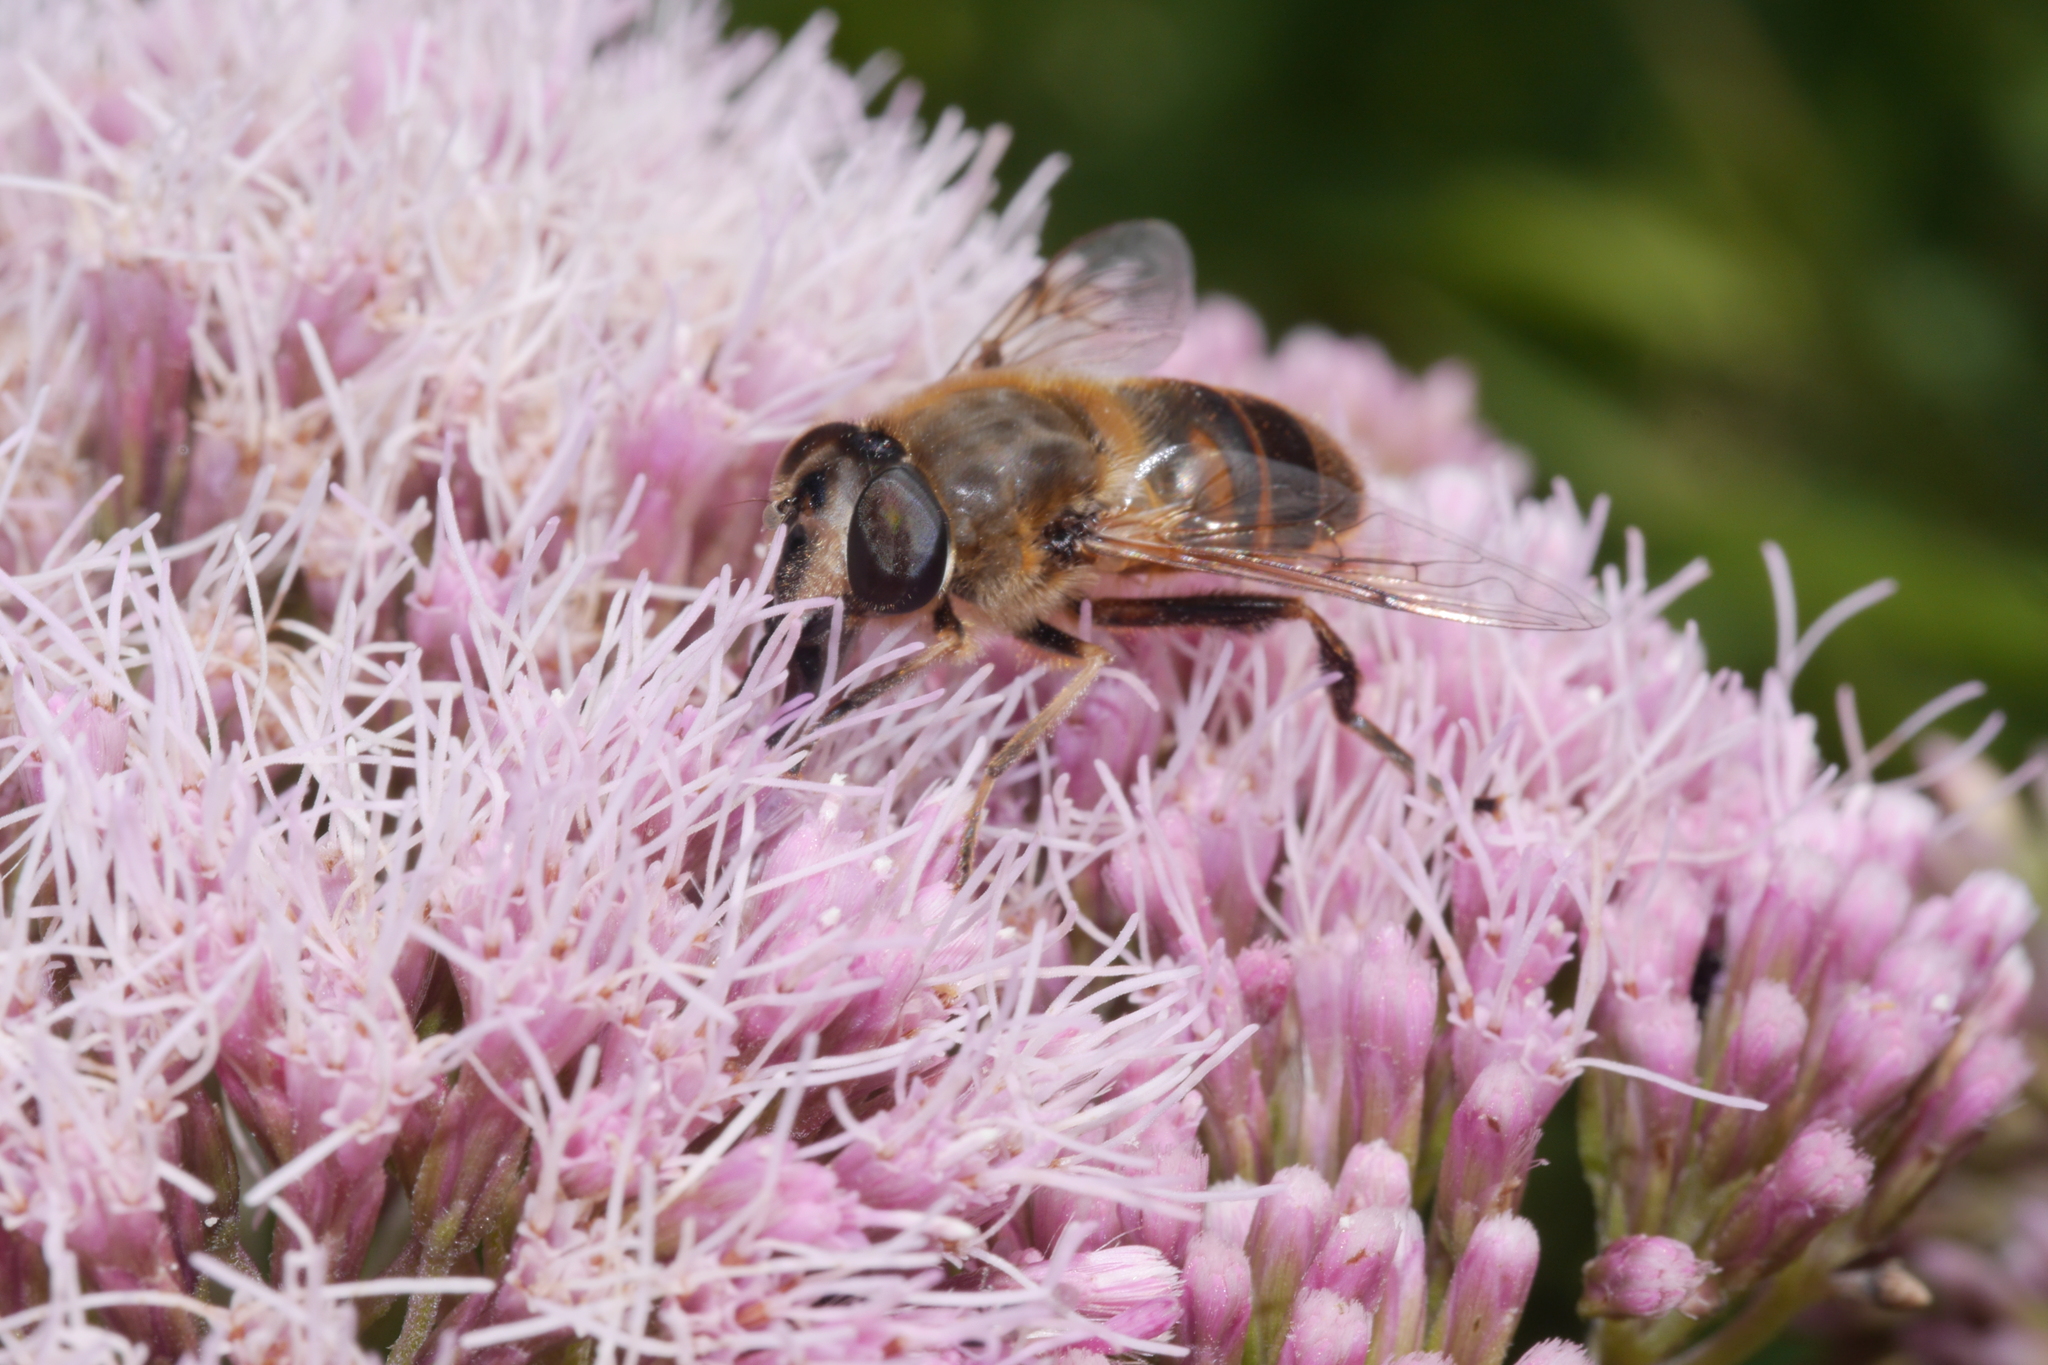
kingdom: Animalia
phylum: Arthropoda
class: Insecta
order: Diptera
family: Syrphidae
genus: Eristalis
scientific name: Eristalis tenax
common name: Drone fly
